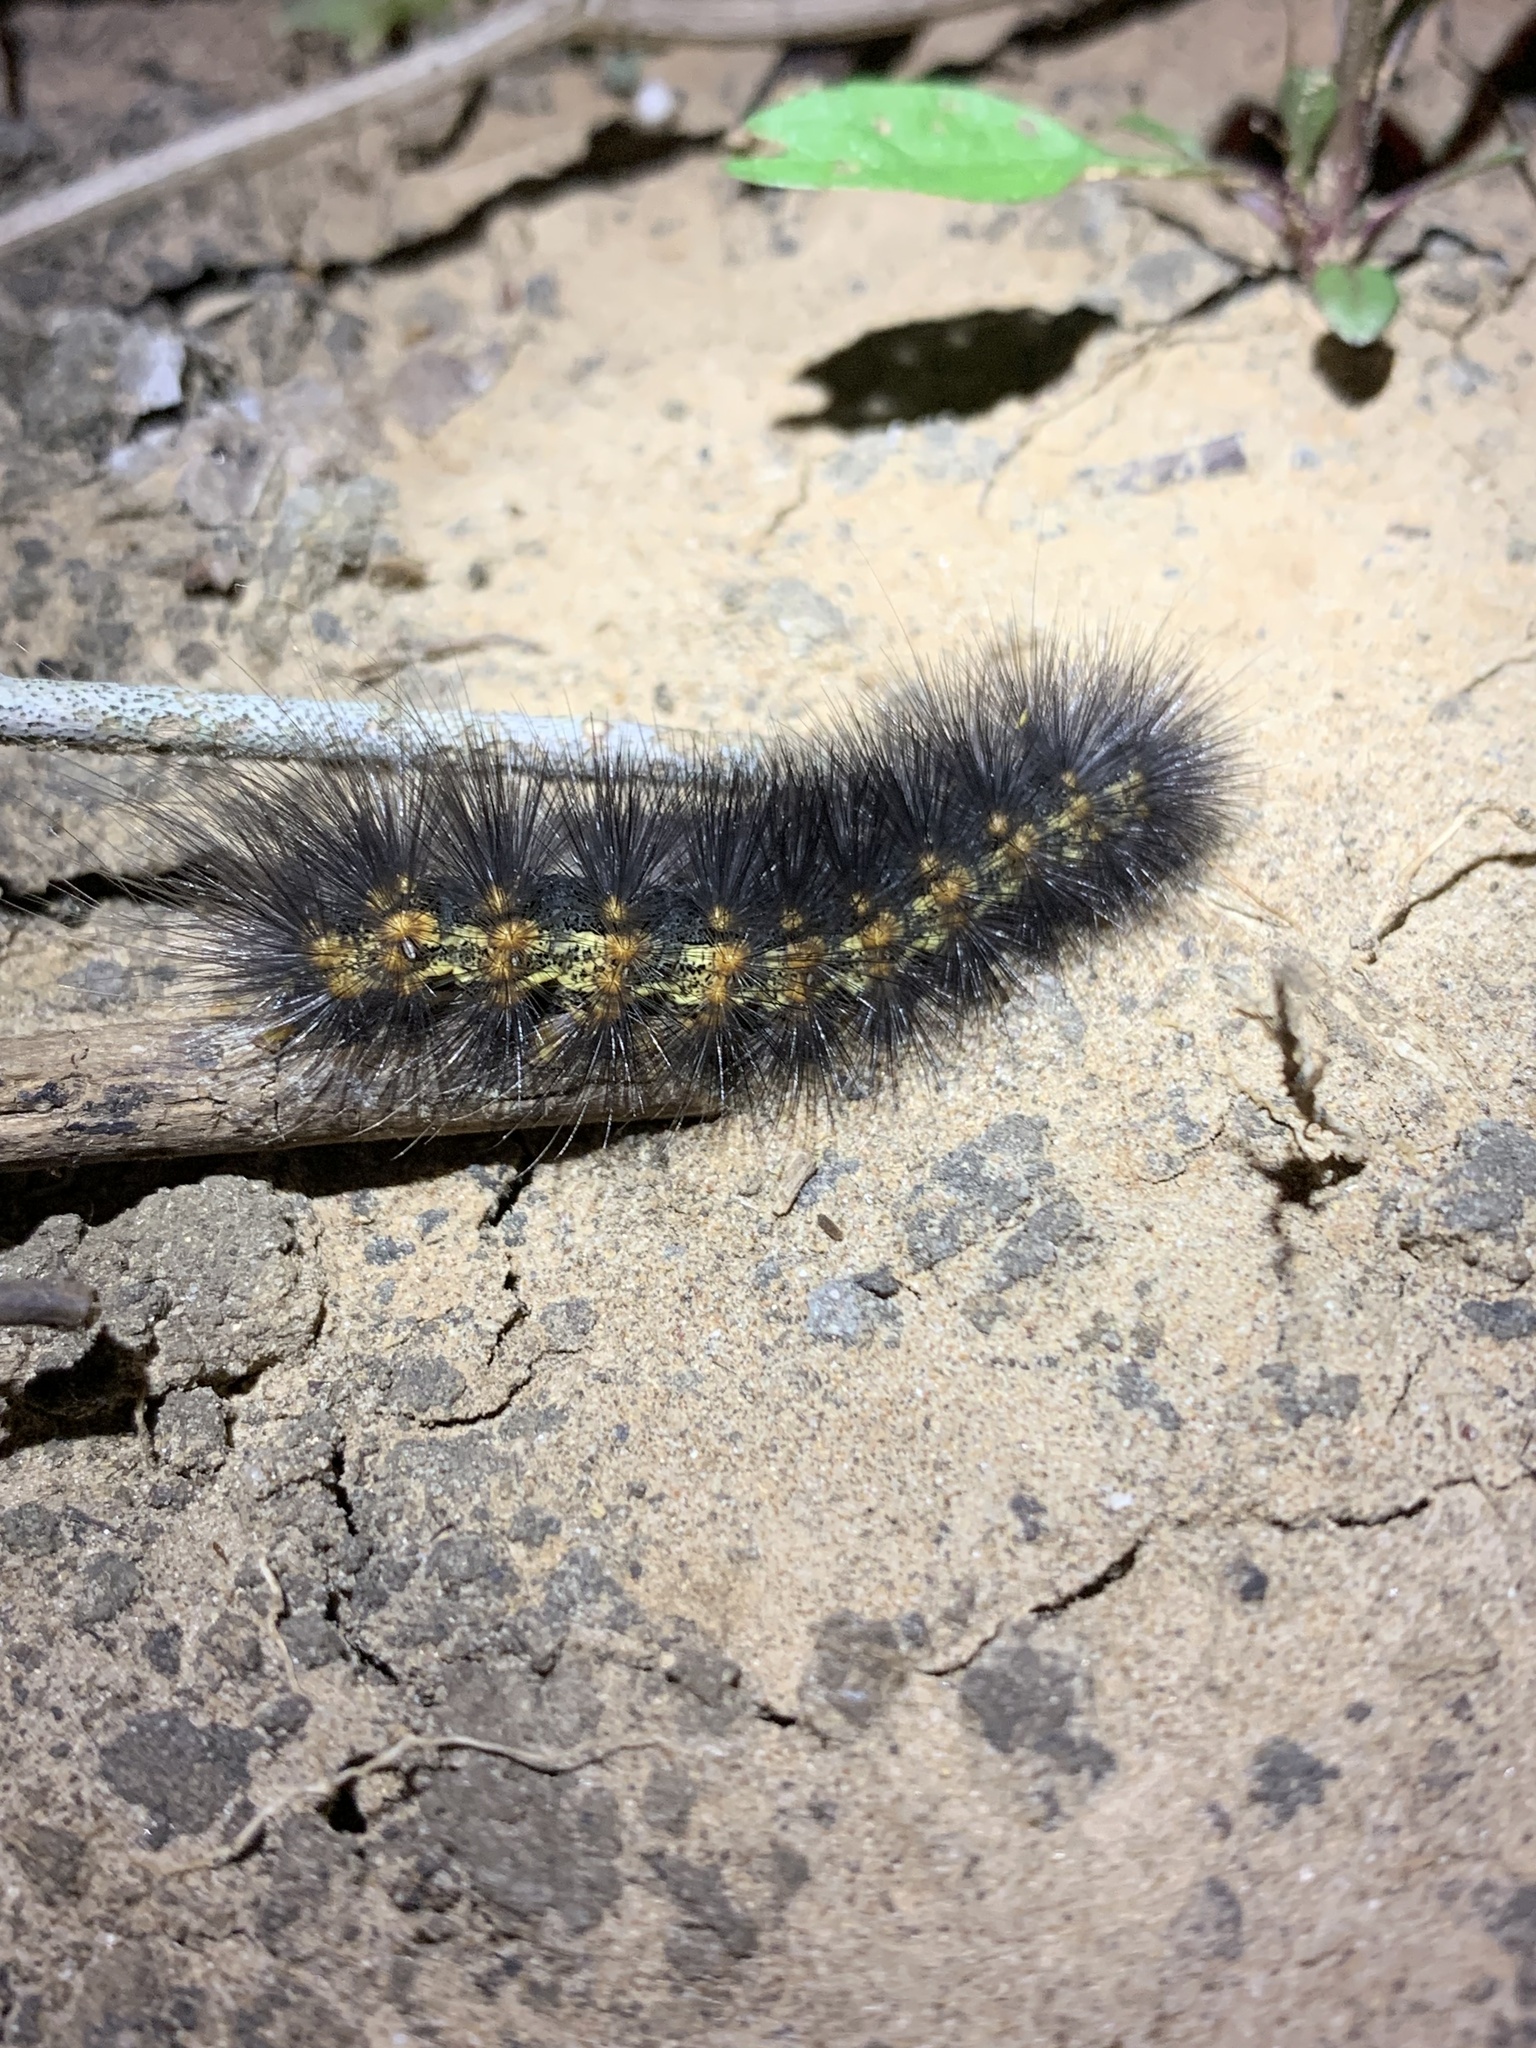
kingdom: Animalia
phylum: Arthropoda
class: Insecta
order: Lepidoptera
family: Erebidae
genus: Estigmene
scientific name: Estigmene acrea
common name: Salt marsh moth
